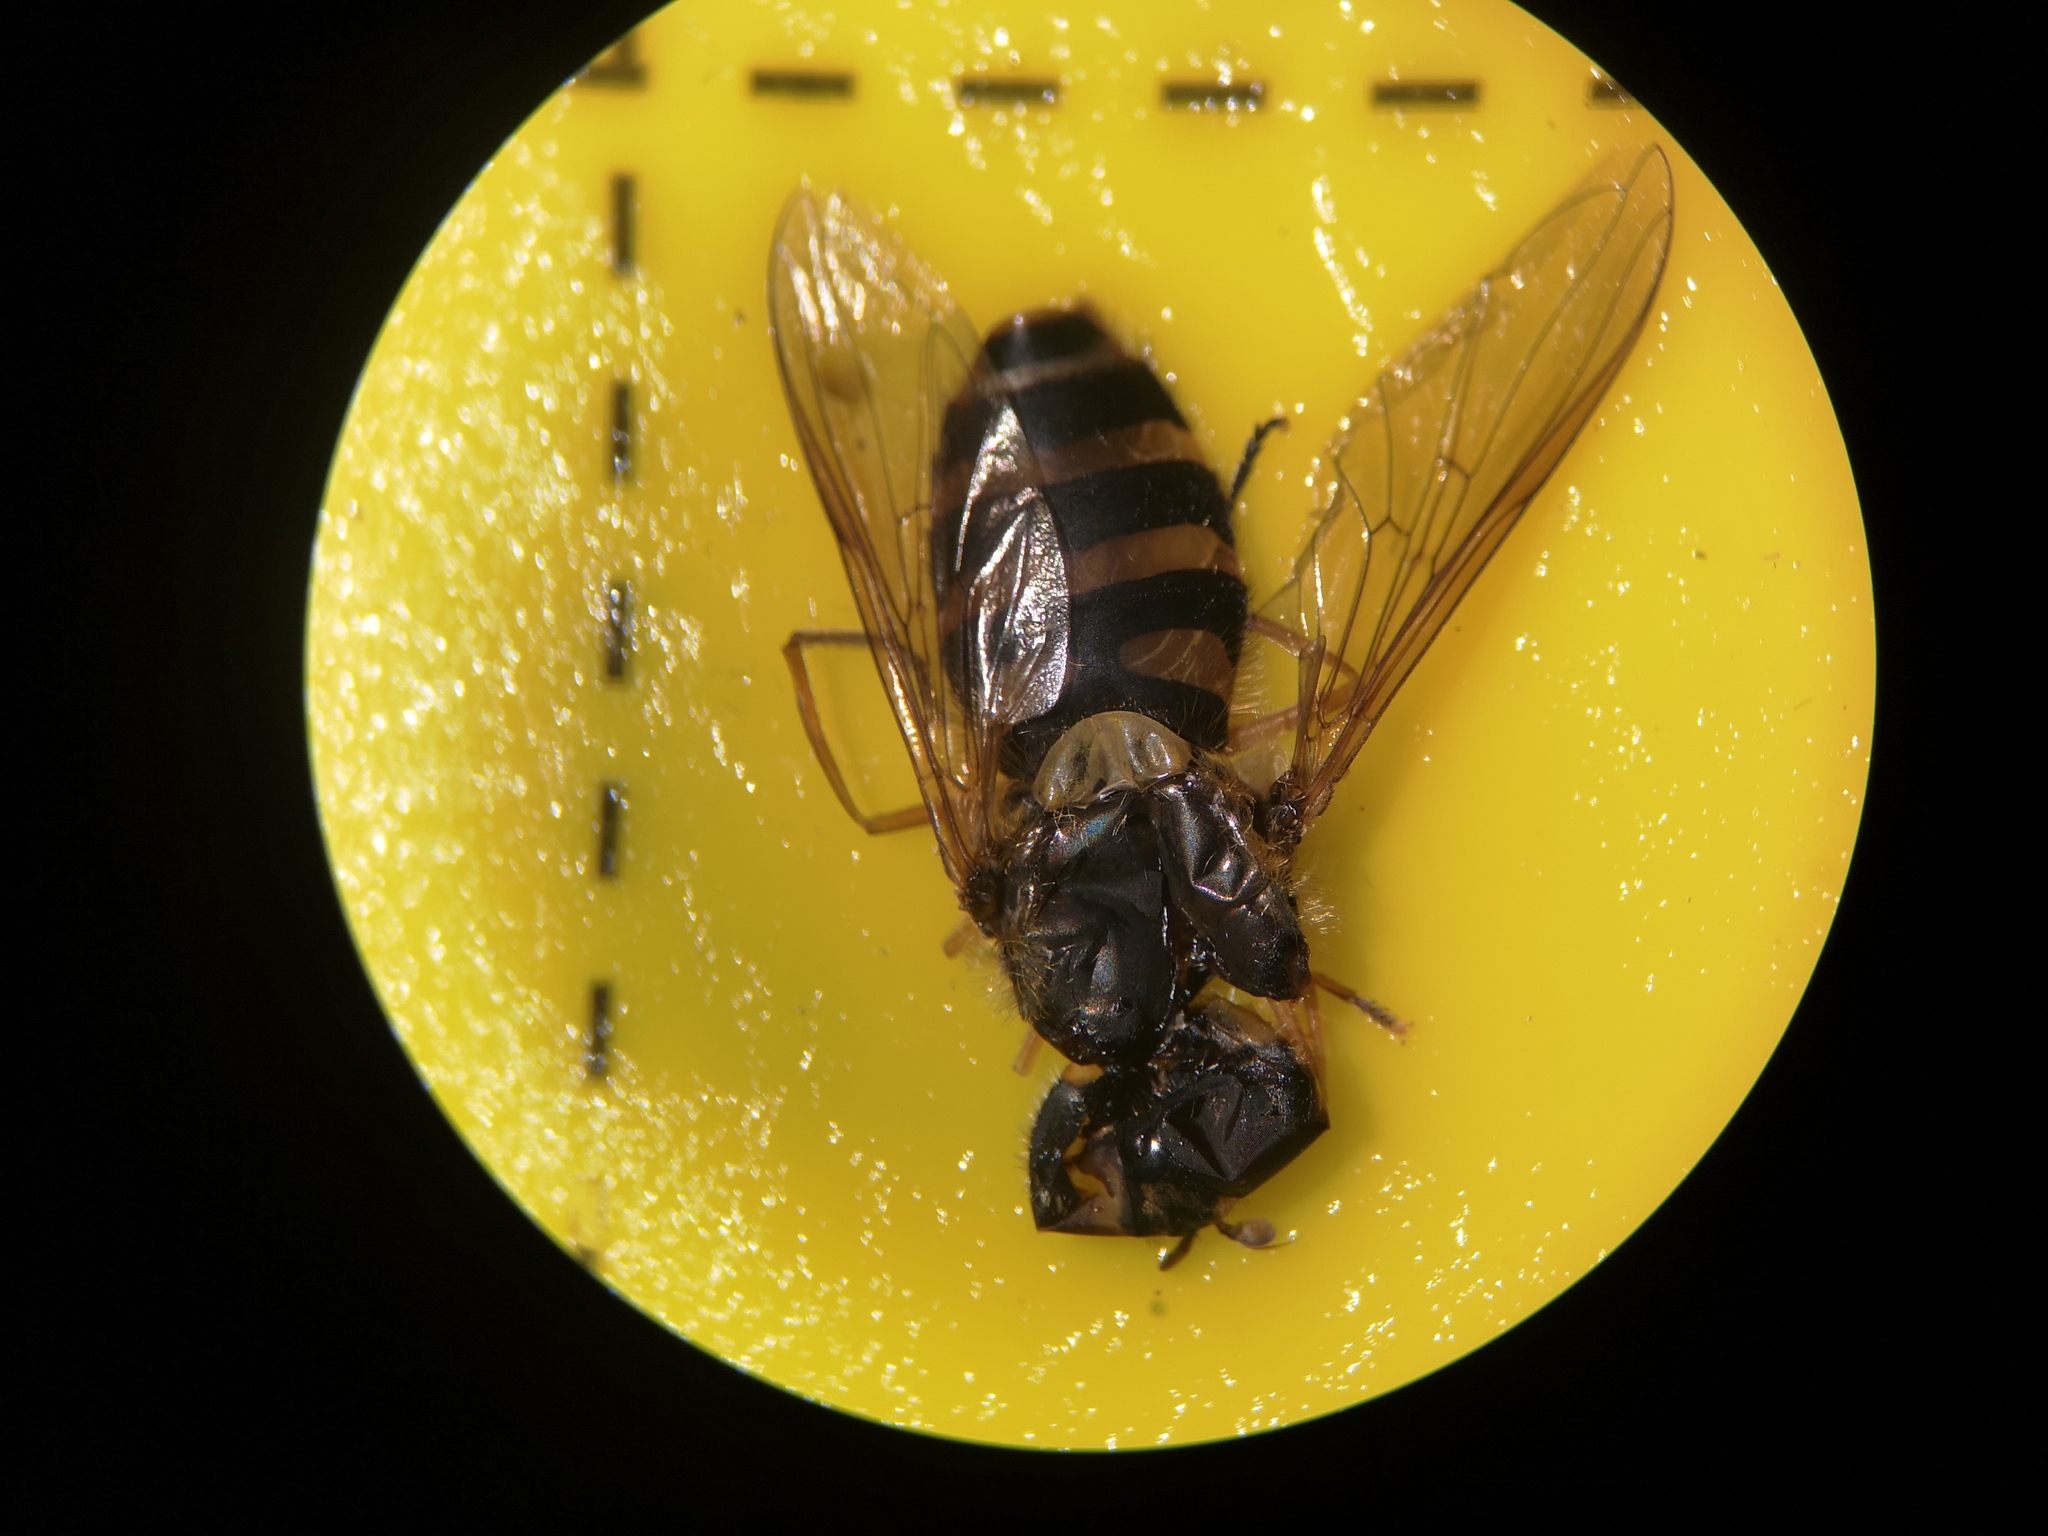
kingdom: Animalia
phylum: Arthropoda
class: Insecta
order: Diptera
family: Syrphidae
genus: Syrphus
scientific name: Syrphus
